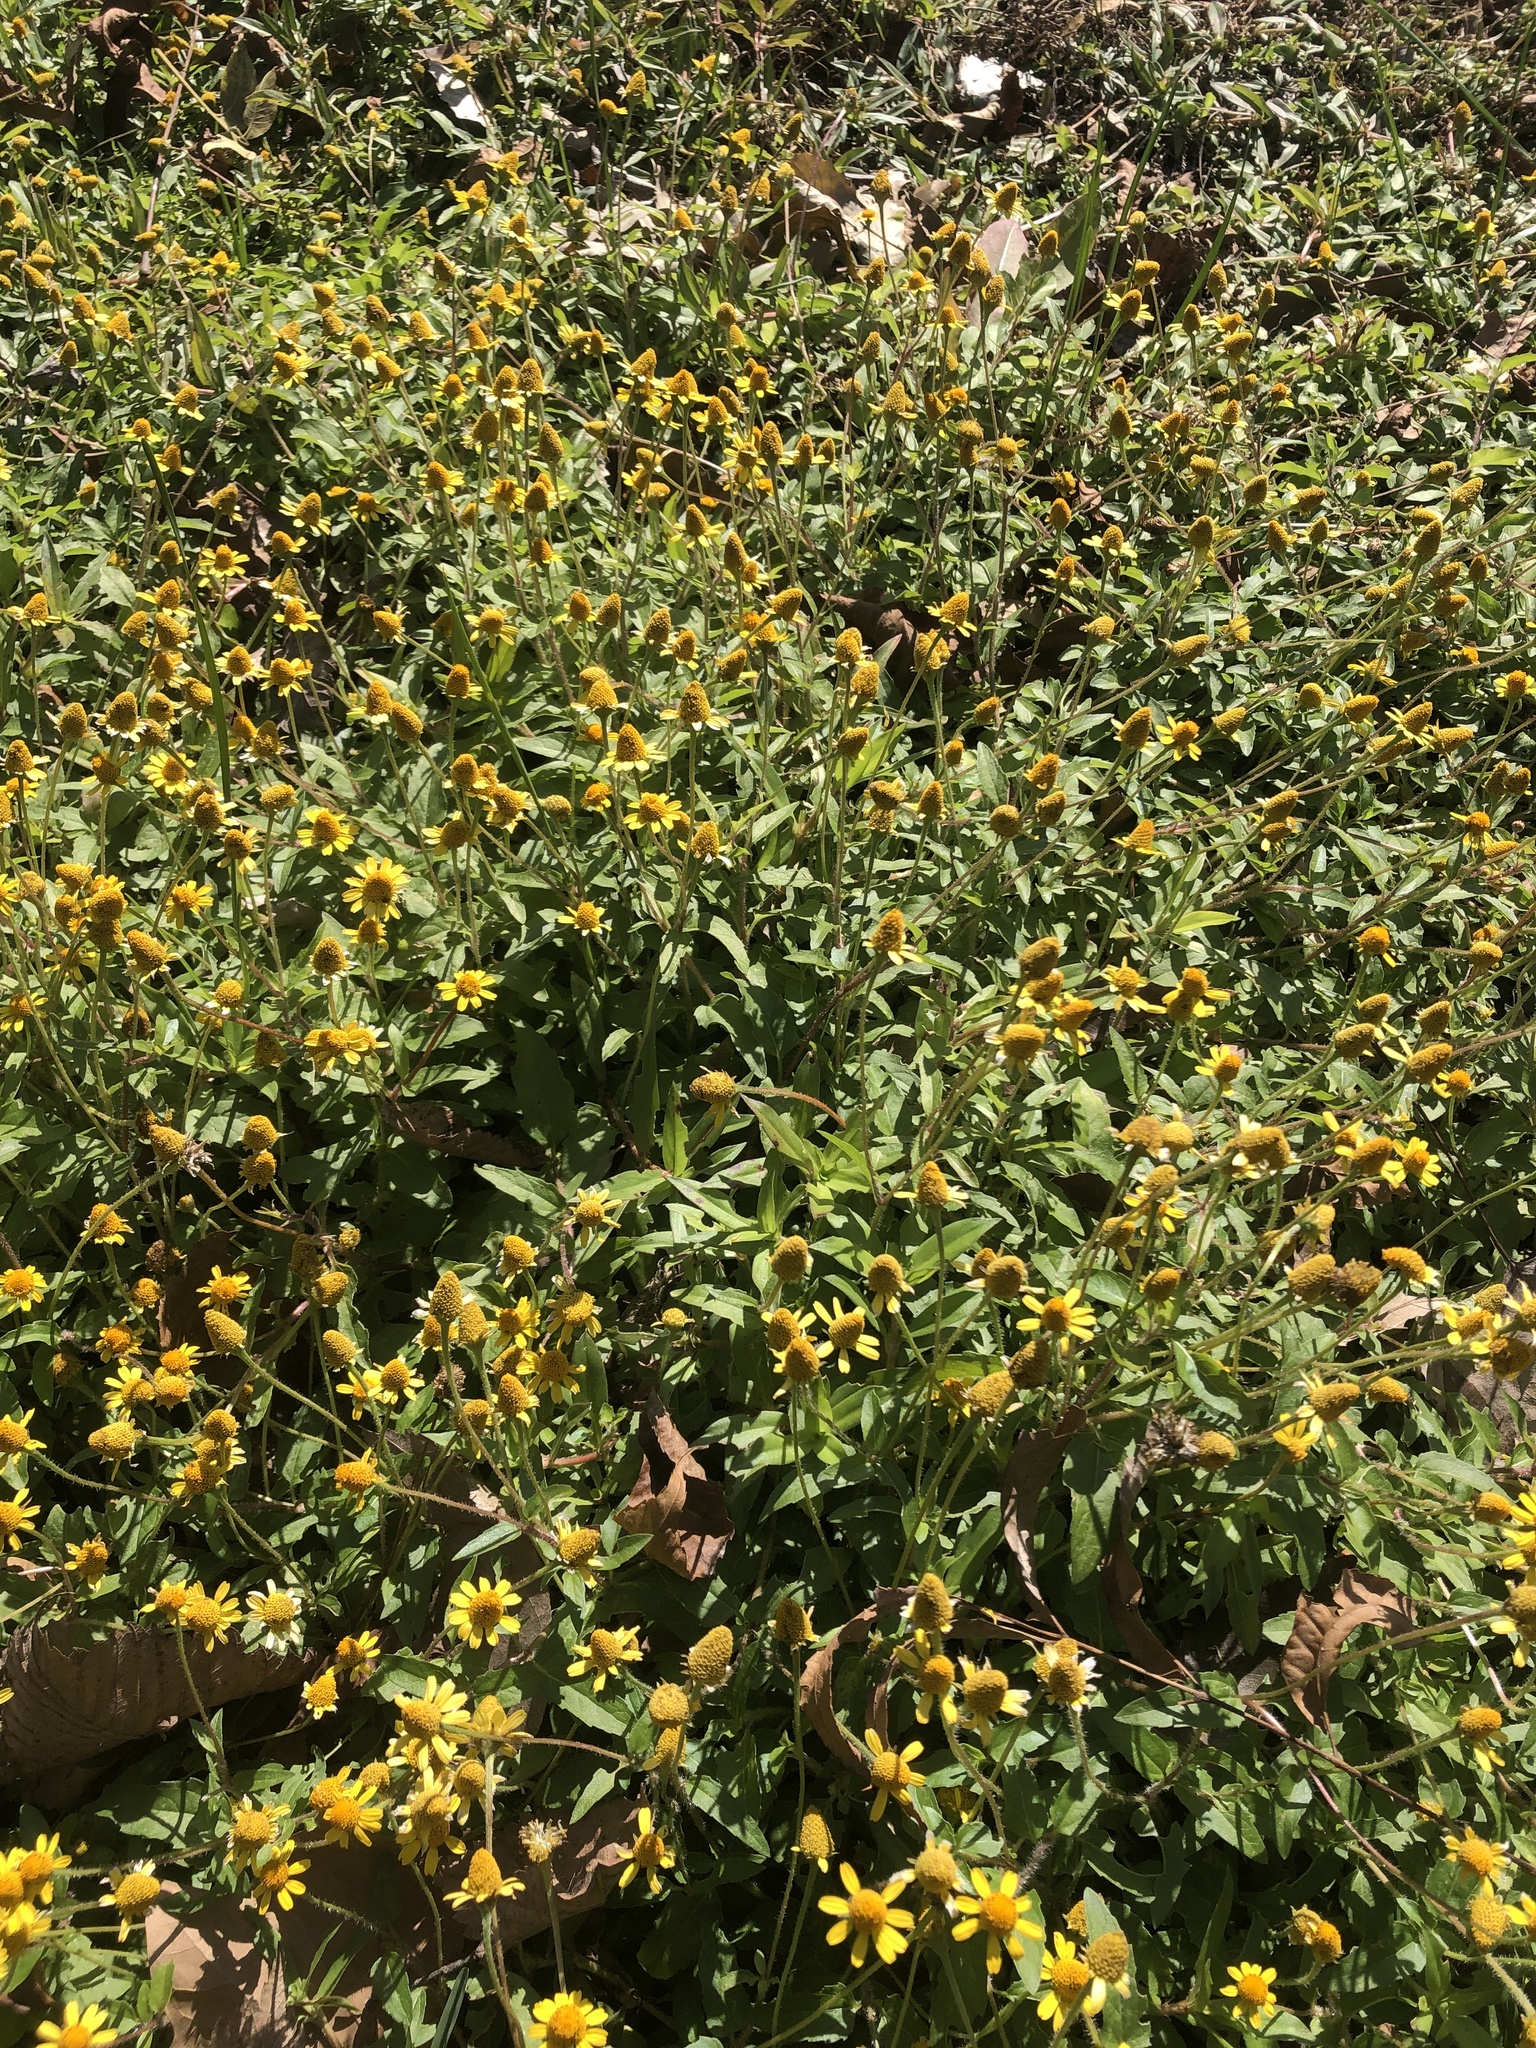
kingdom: Plantae
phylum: Tracheophyta
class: Magnoliopsida
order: Asterales
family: Asteraceae
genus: Acmella
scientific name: Acmella repens
